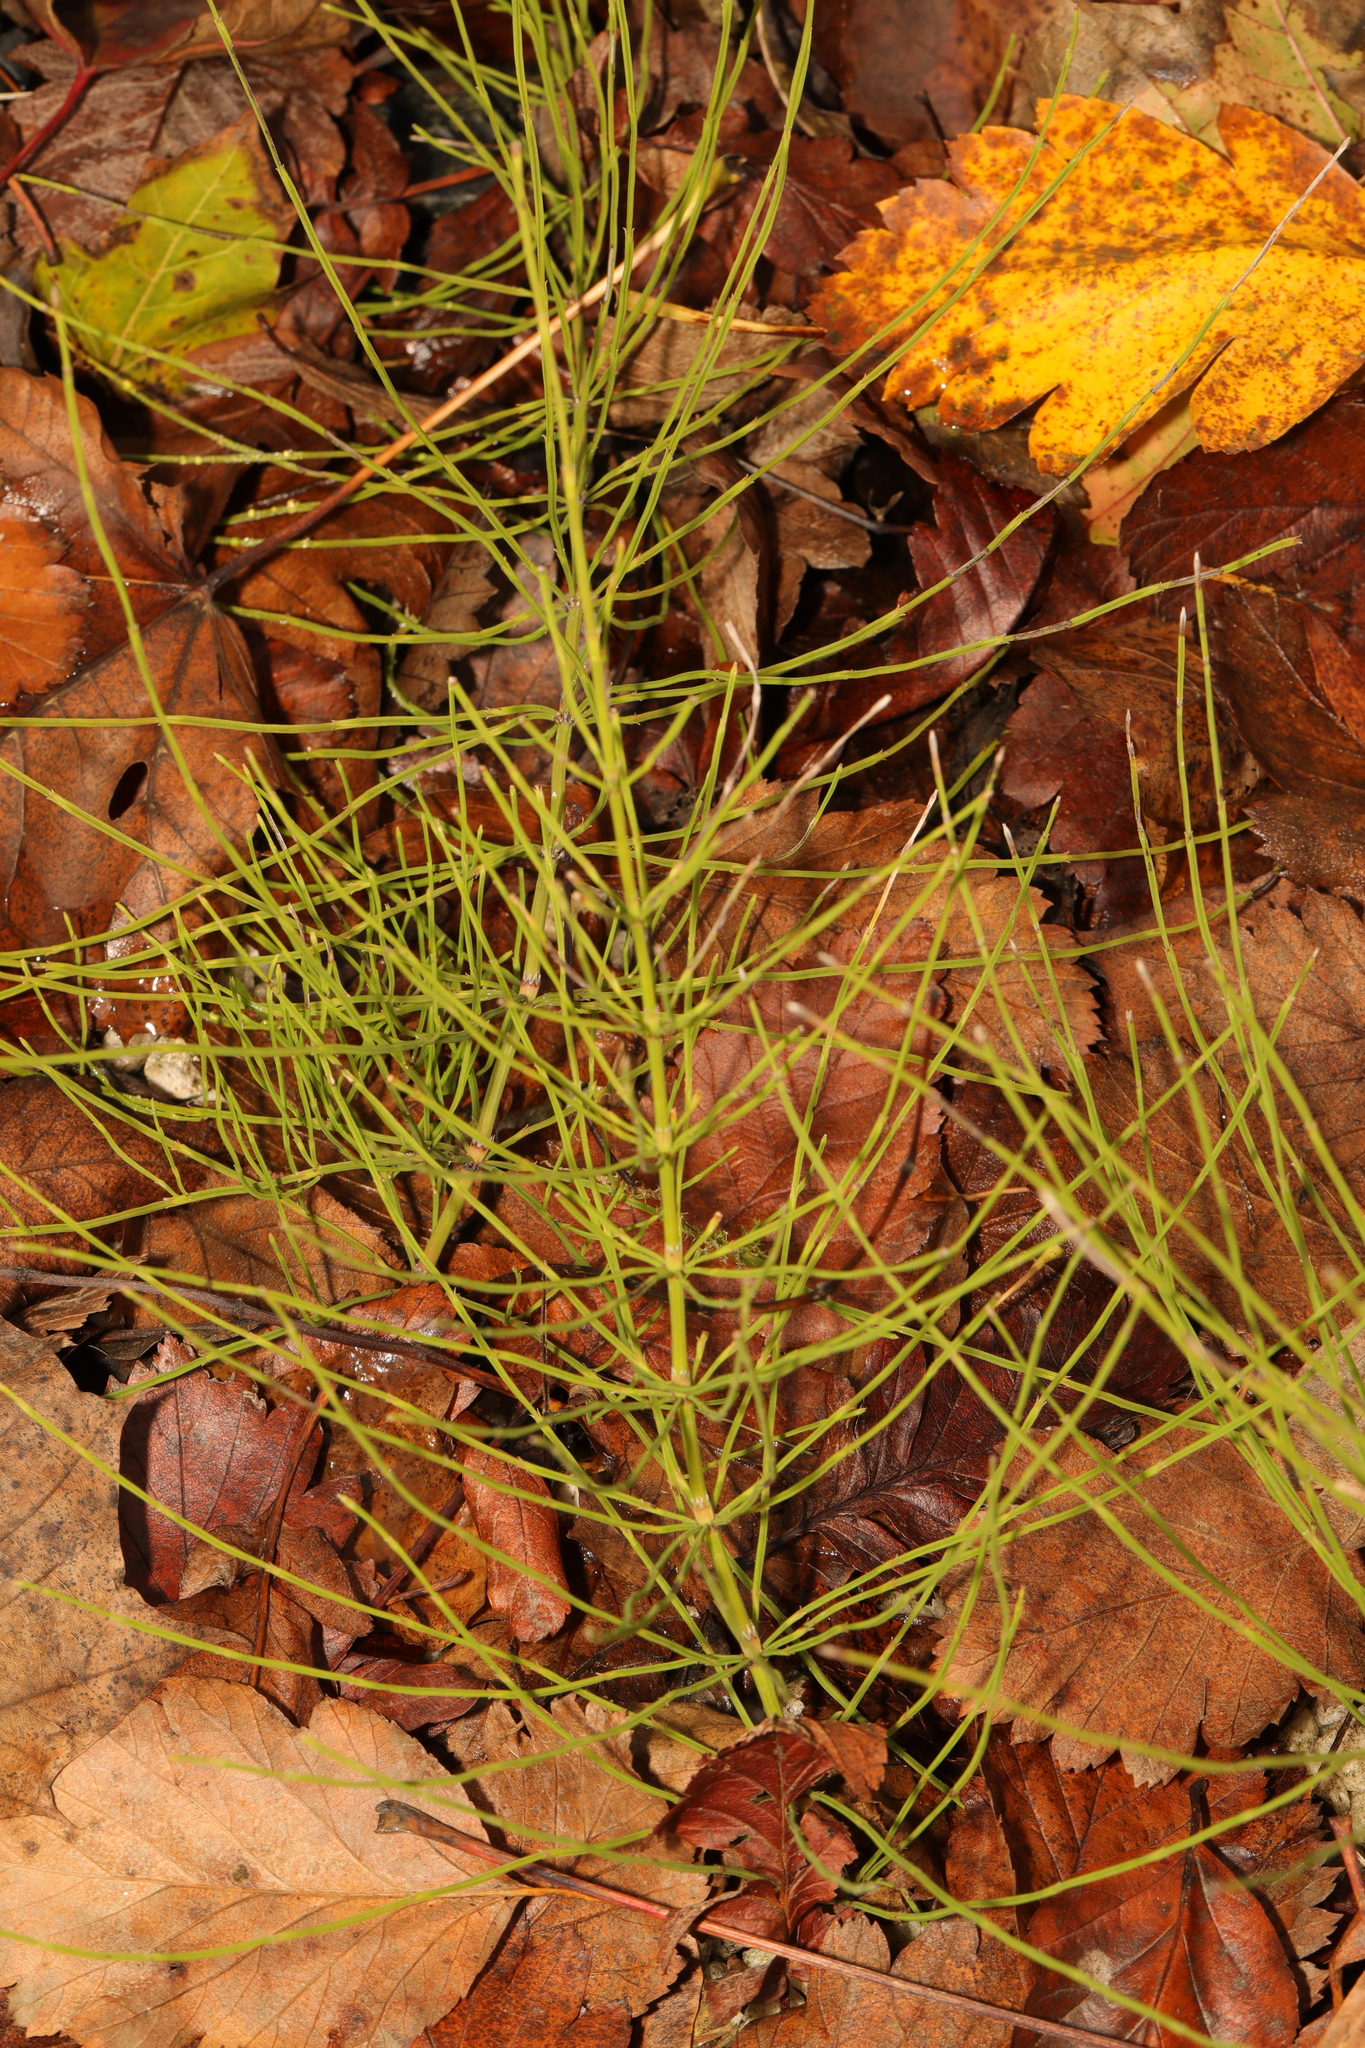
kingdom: Plantae
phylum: Tracheophyta
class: Polypodiopsida
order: Equisetales
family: Equisetaceae
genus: Equisetum
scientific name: Equisetum arvense
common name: Field horsetail
